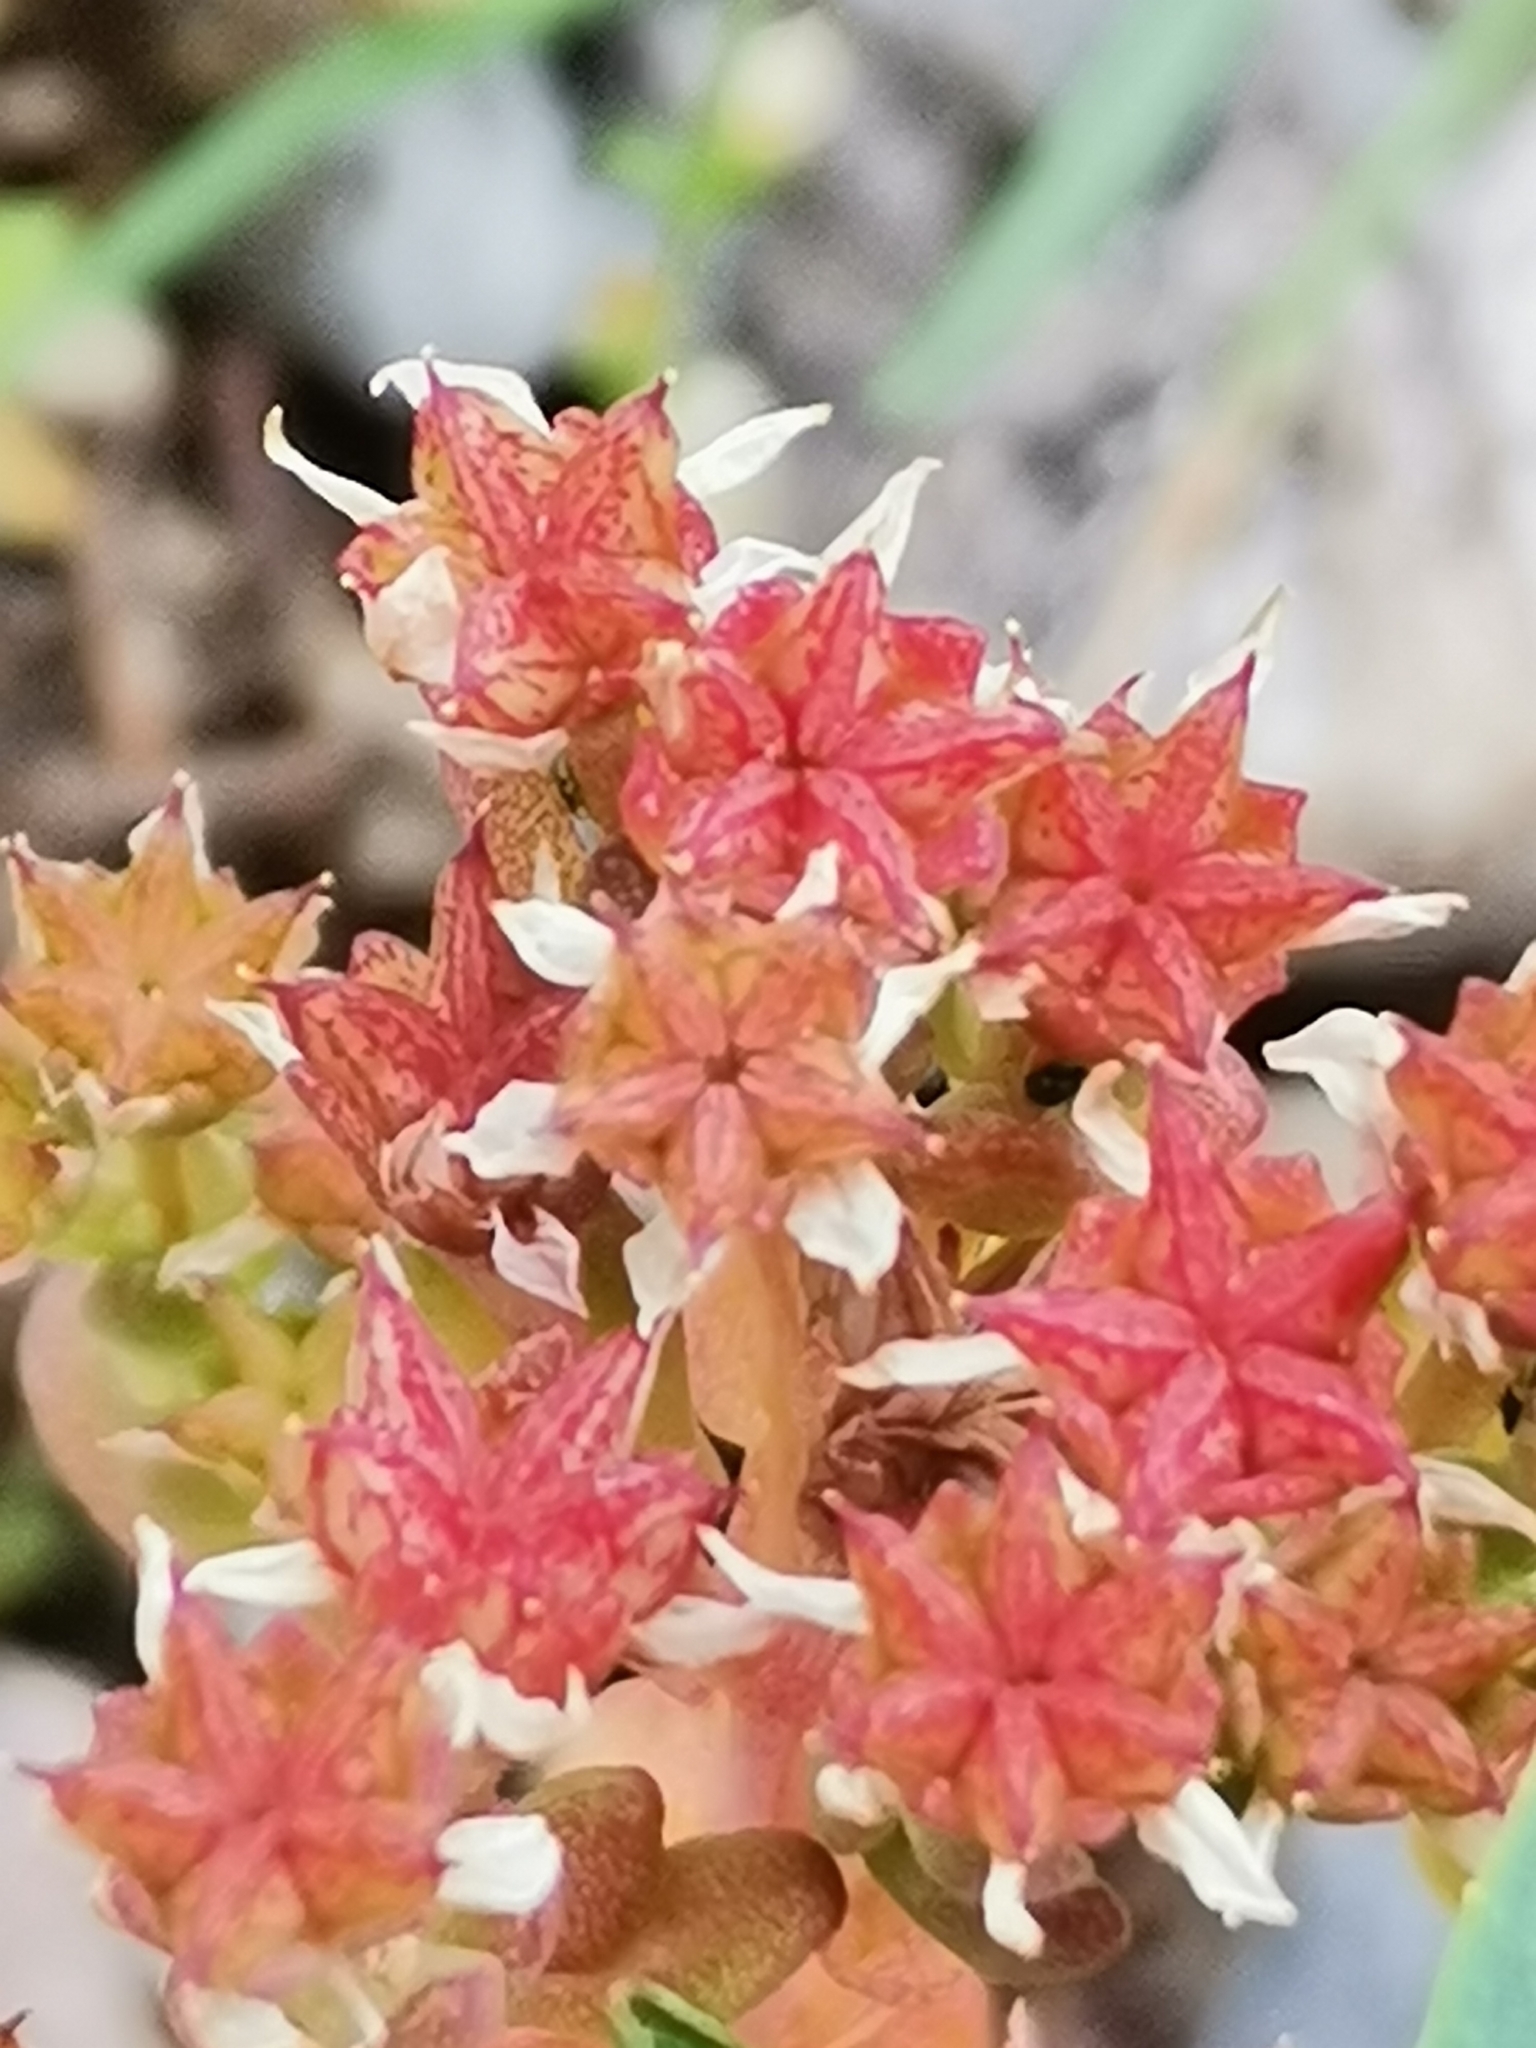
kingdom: Plantae
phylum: Tracheophyta
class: Magnoliopsida
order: Saxifragales
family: Crassulaceae
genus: Sedum
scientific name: Sedum annuum
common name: Annual stonecrop
